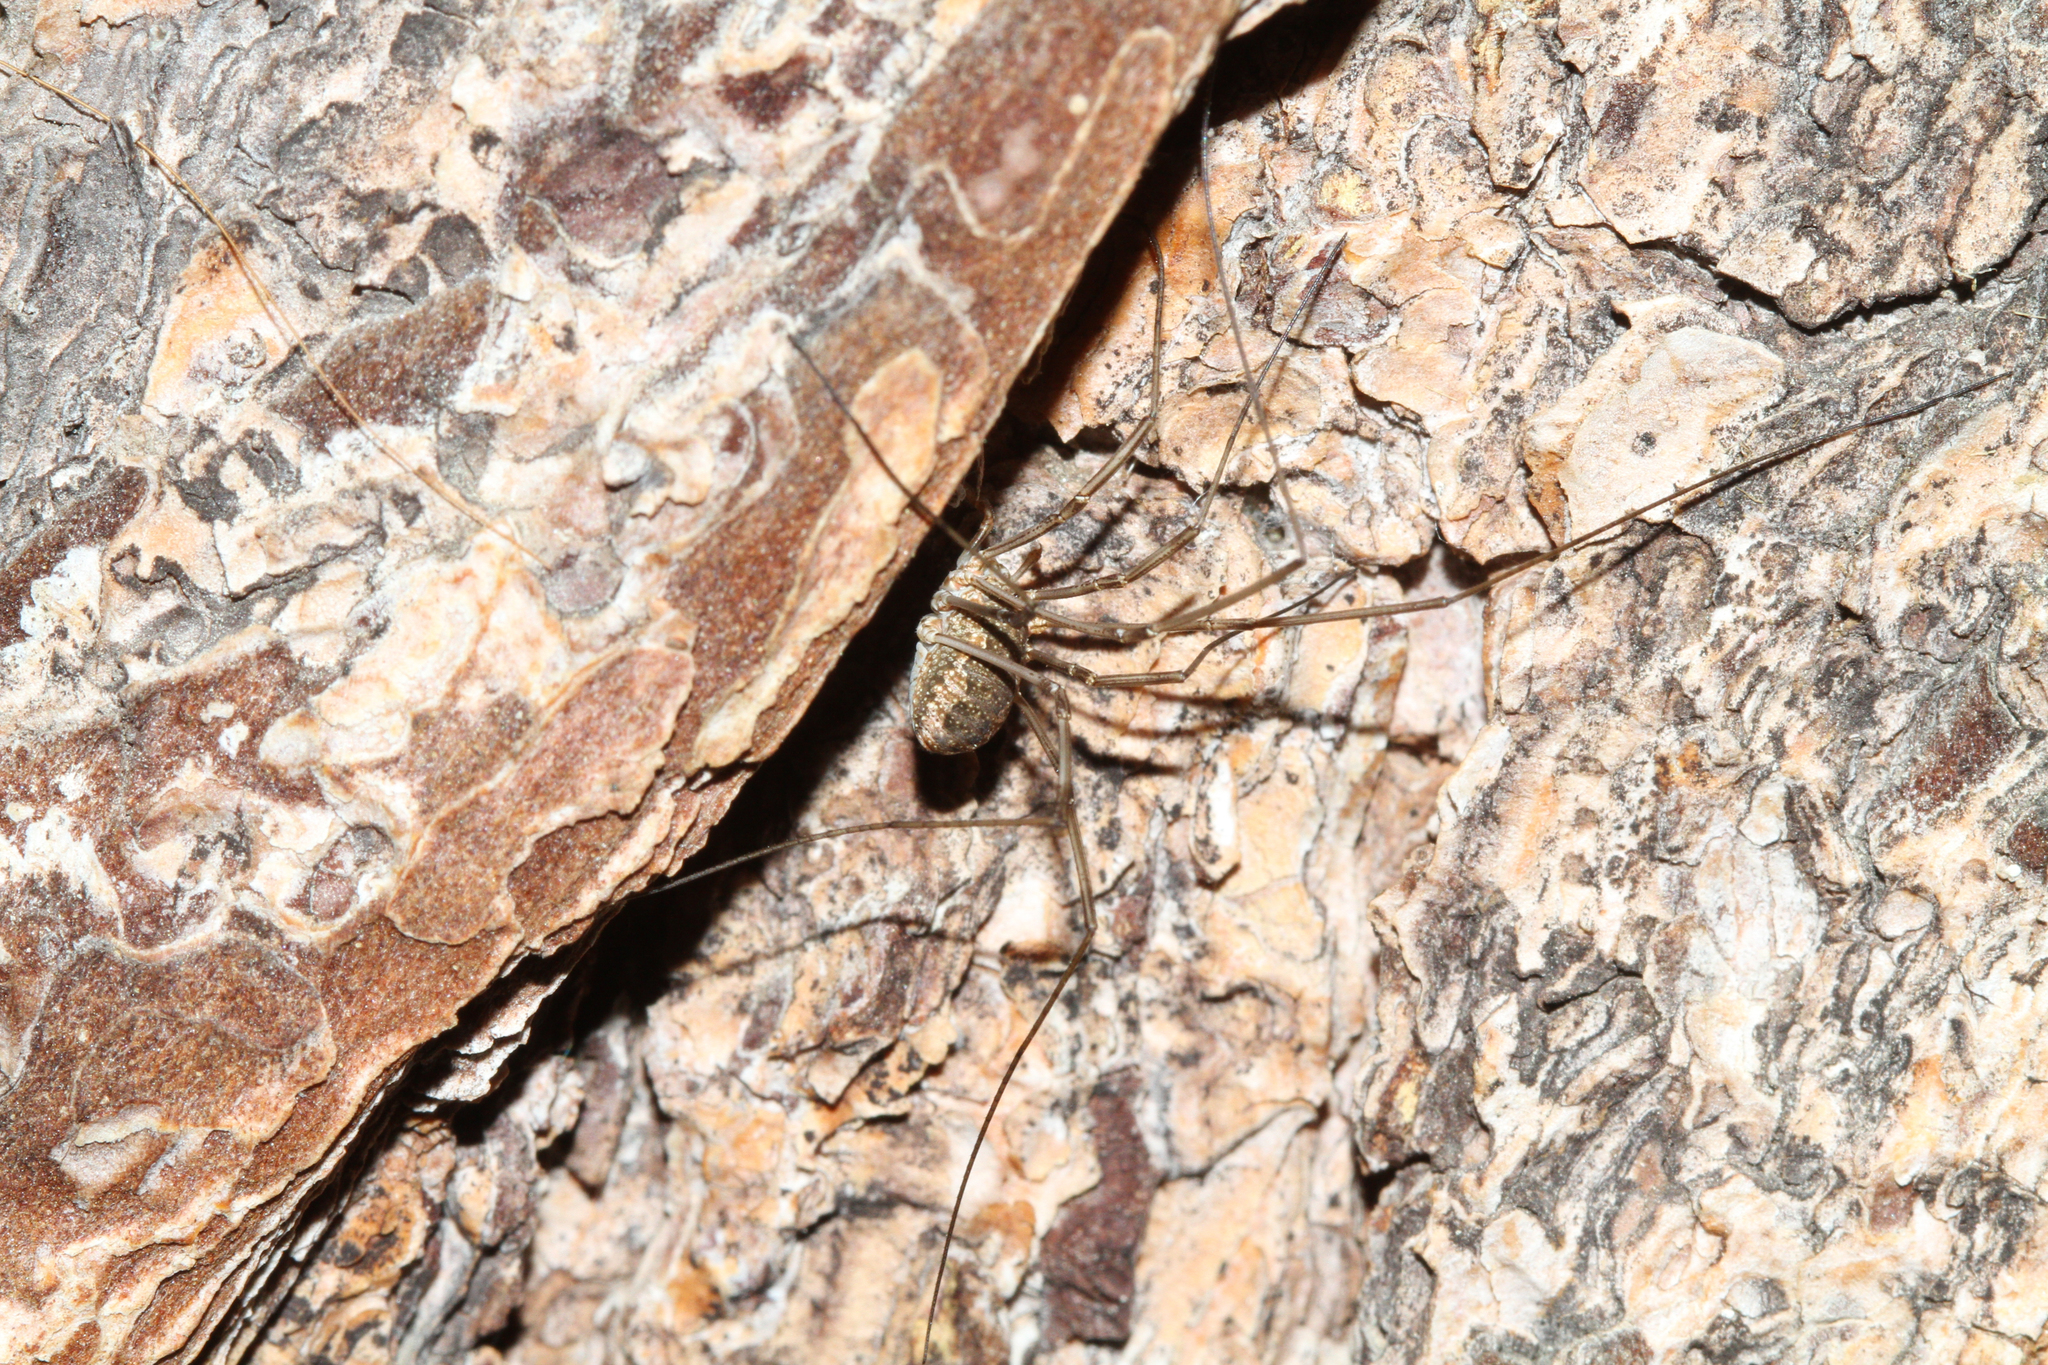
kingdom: Animalia
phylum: Arthropoda
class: Arachnida
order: Opiliones
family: Phalangiidae
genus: Phalangium
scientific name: Phalangium opilio
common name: Daddy longleg
